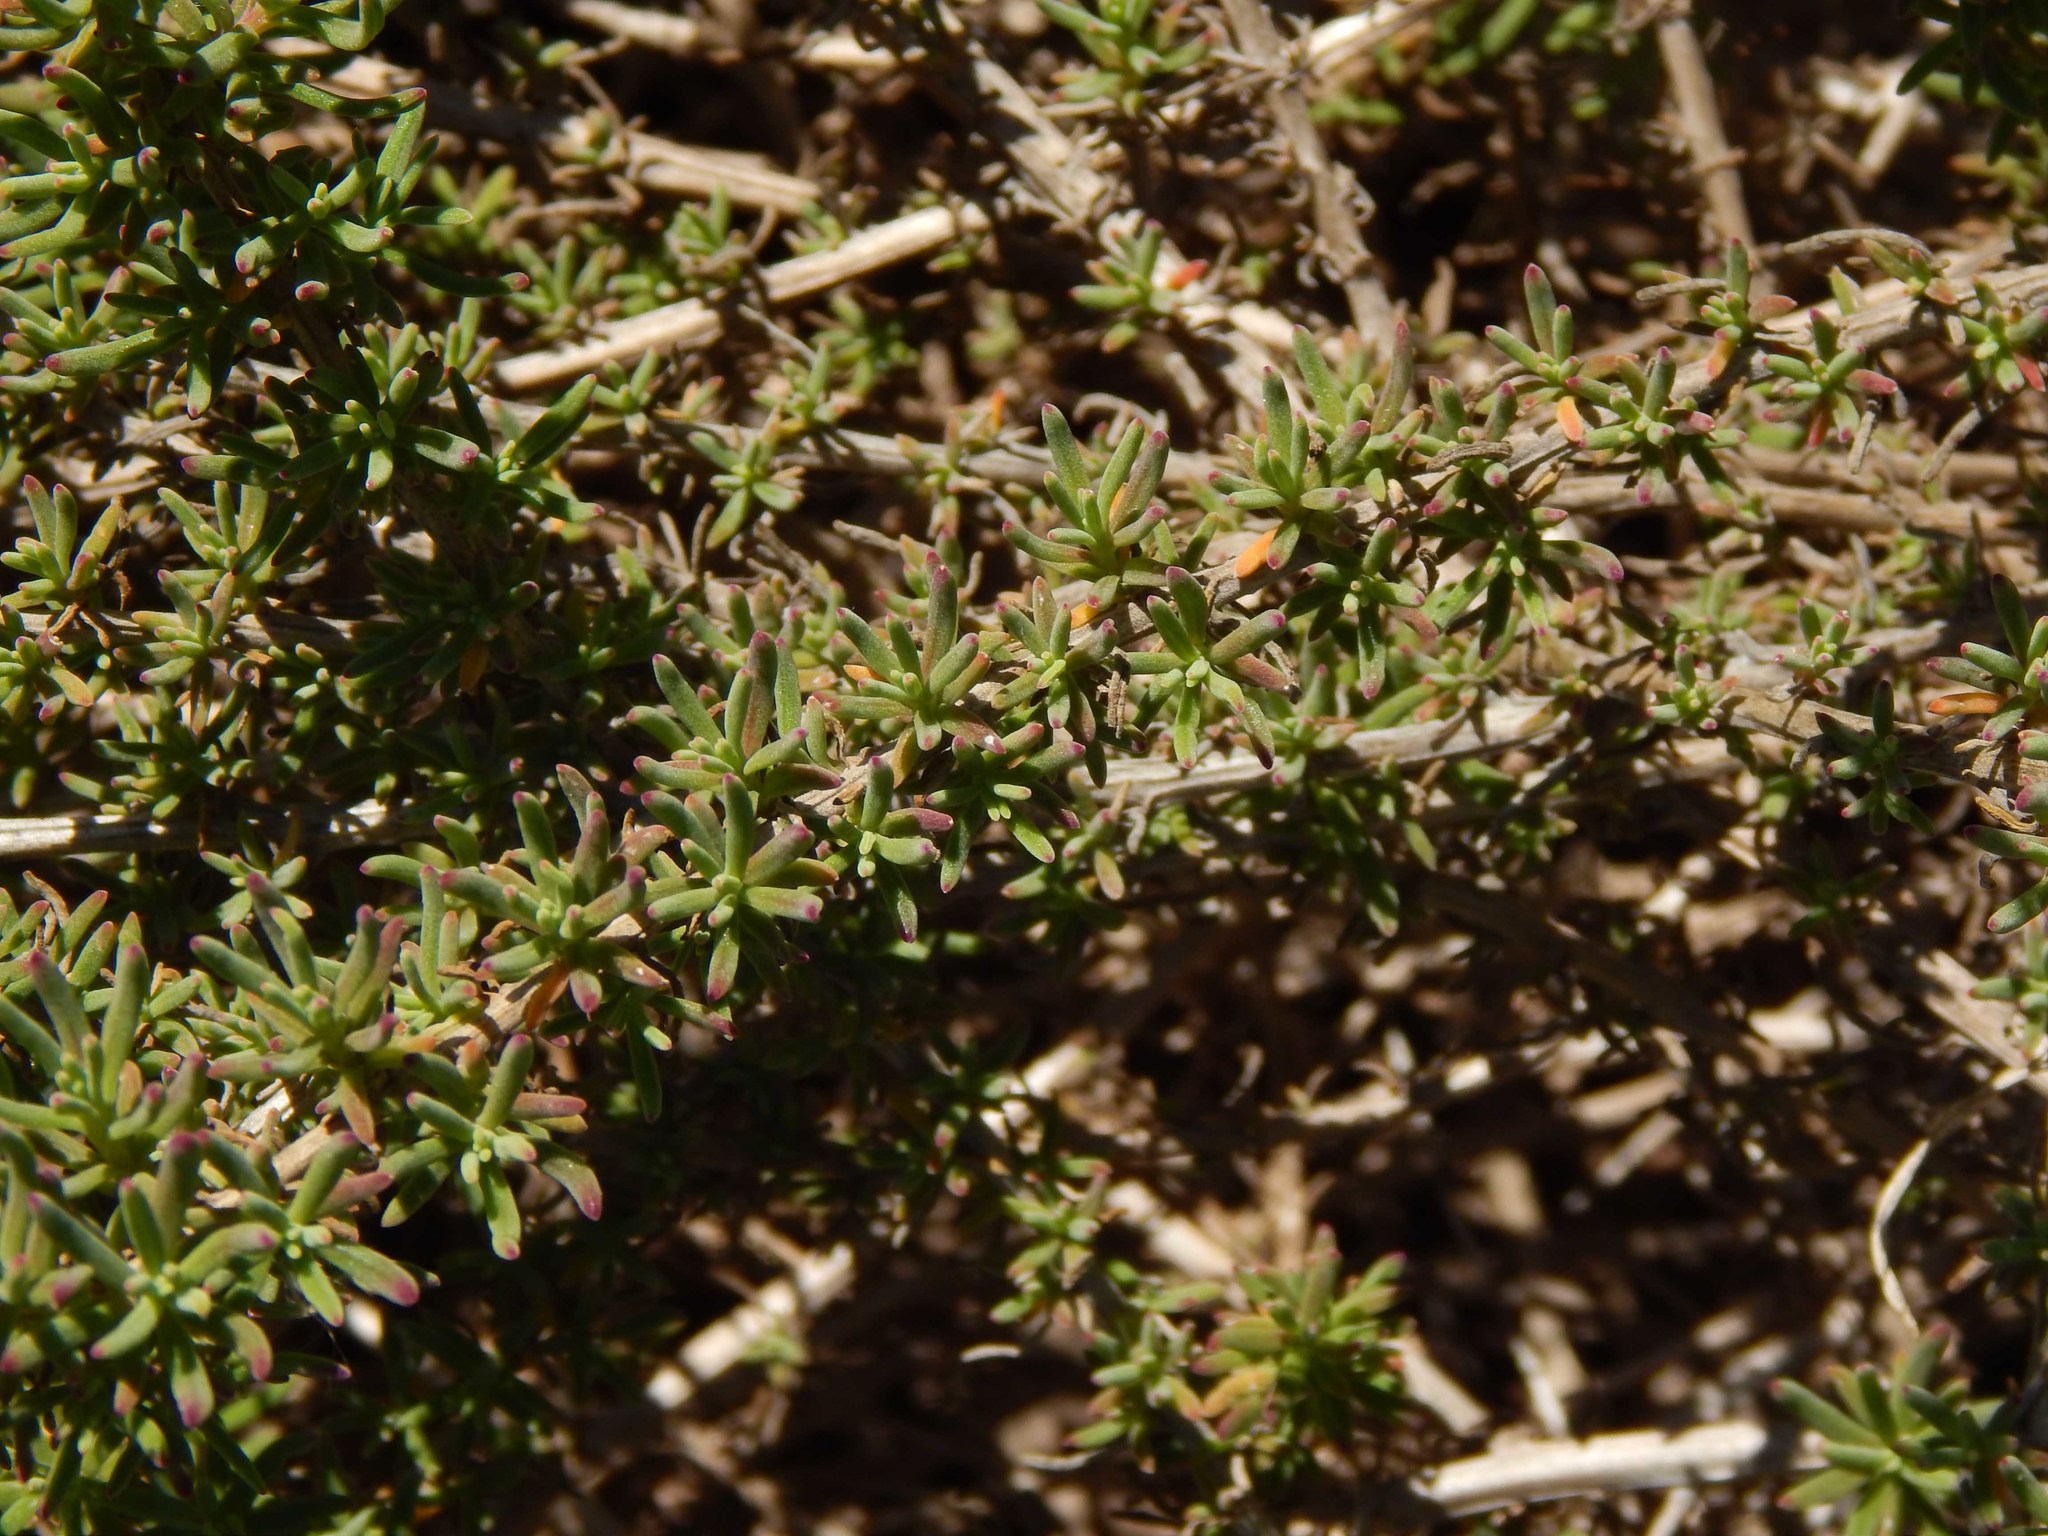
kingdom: Plantae
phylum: Tracheophyta
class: Magnoliopsida
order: Caryophyllales
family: Aizoaceae
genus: Tetragonia
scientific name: Tetragonia fruticosa
